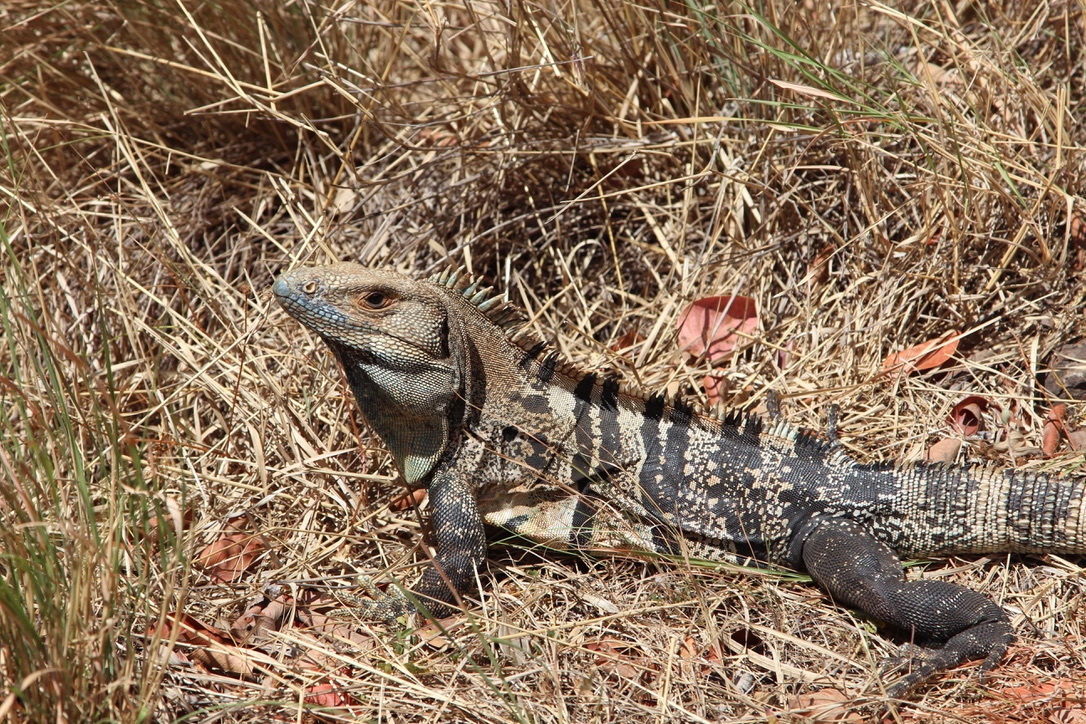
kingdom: Animalia
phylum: Chordata
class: Squamata
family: Iguanidae
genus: Ctenosaura
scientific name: Ctenosaura similis
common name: Black spiny-tailed iguana
